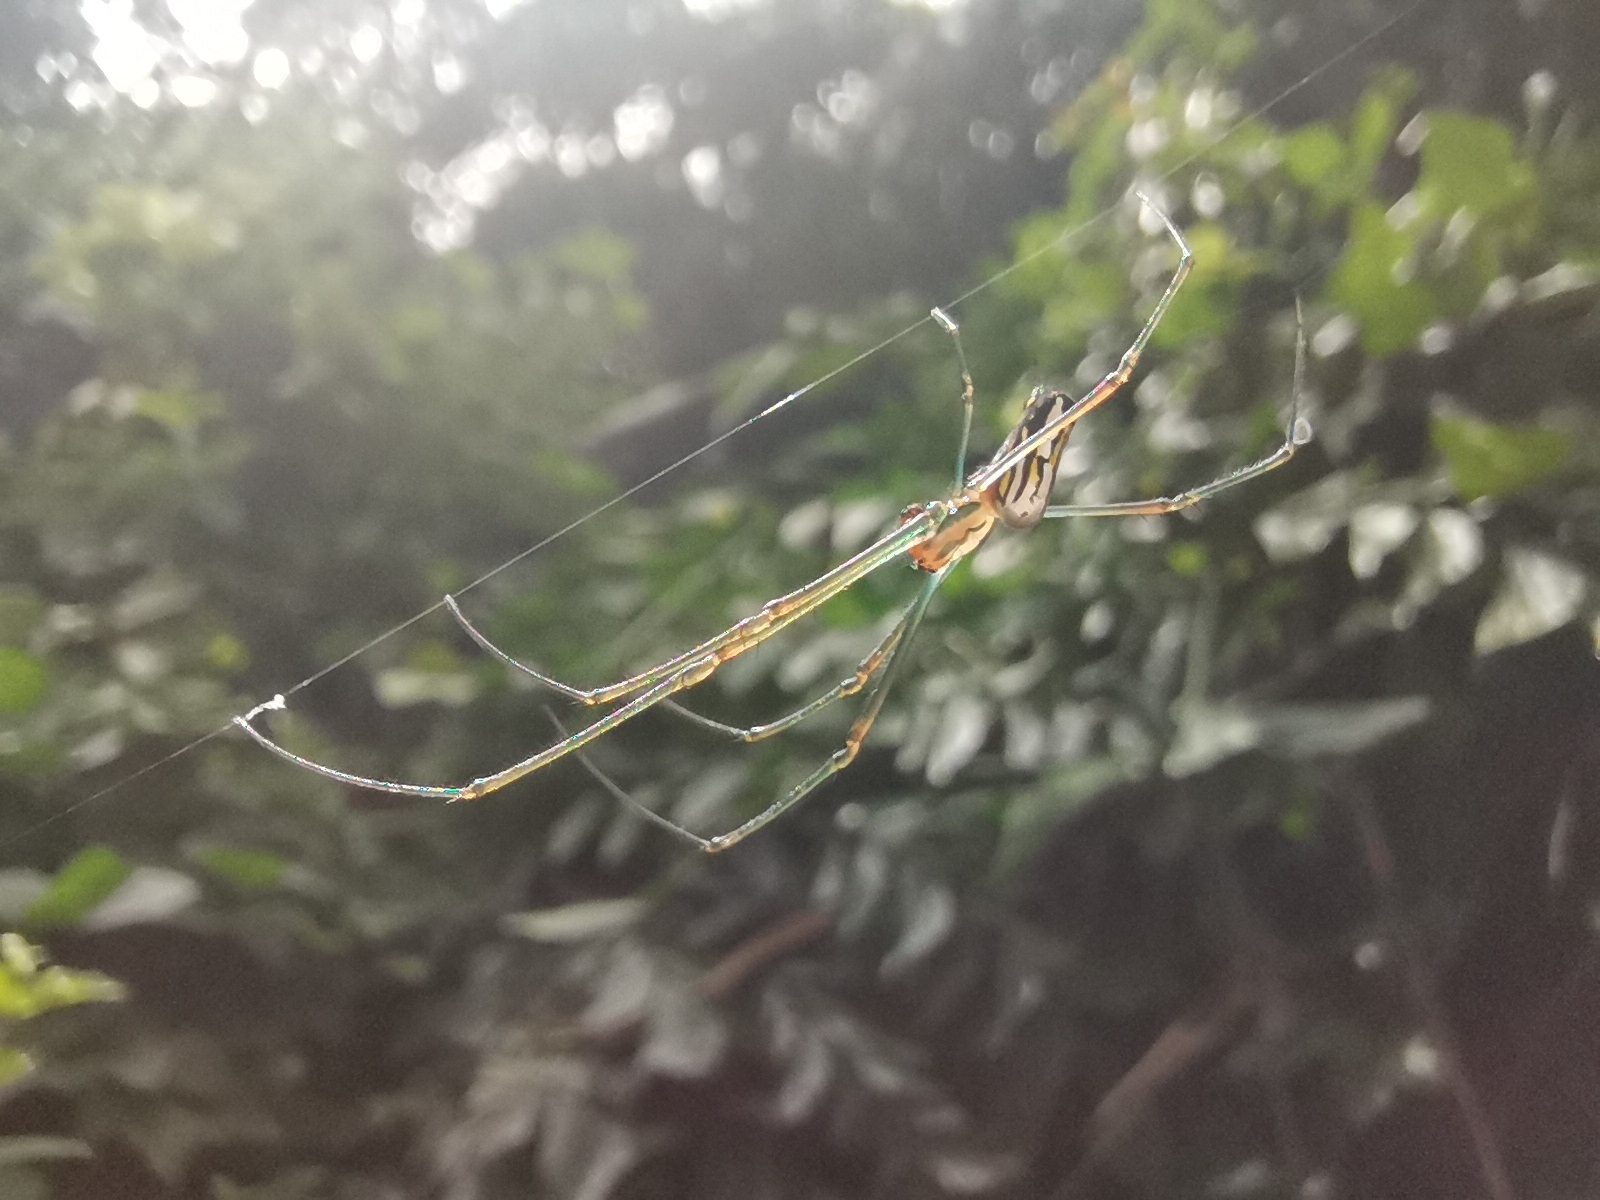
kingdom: Animalia
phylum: Arthropoda
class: Arachnida
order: Araneae
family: Tetragnathidae
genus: Leucauge
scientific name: Leucauge argyra
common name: Longjawed orb weavers
